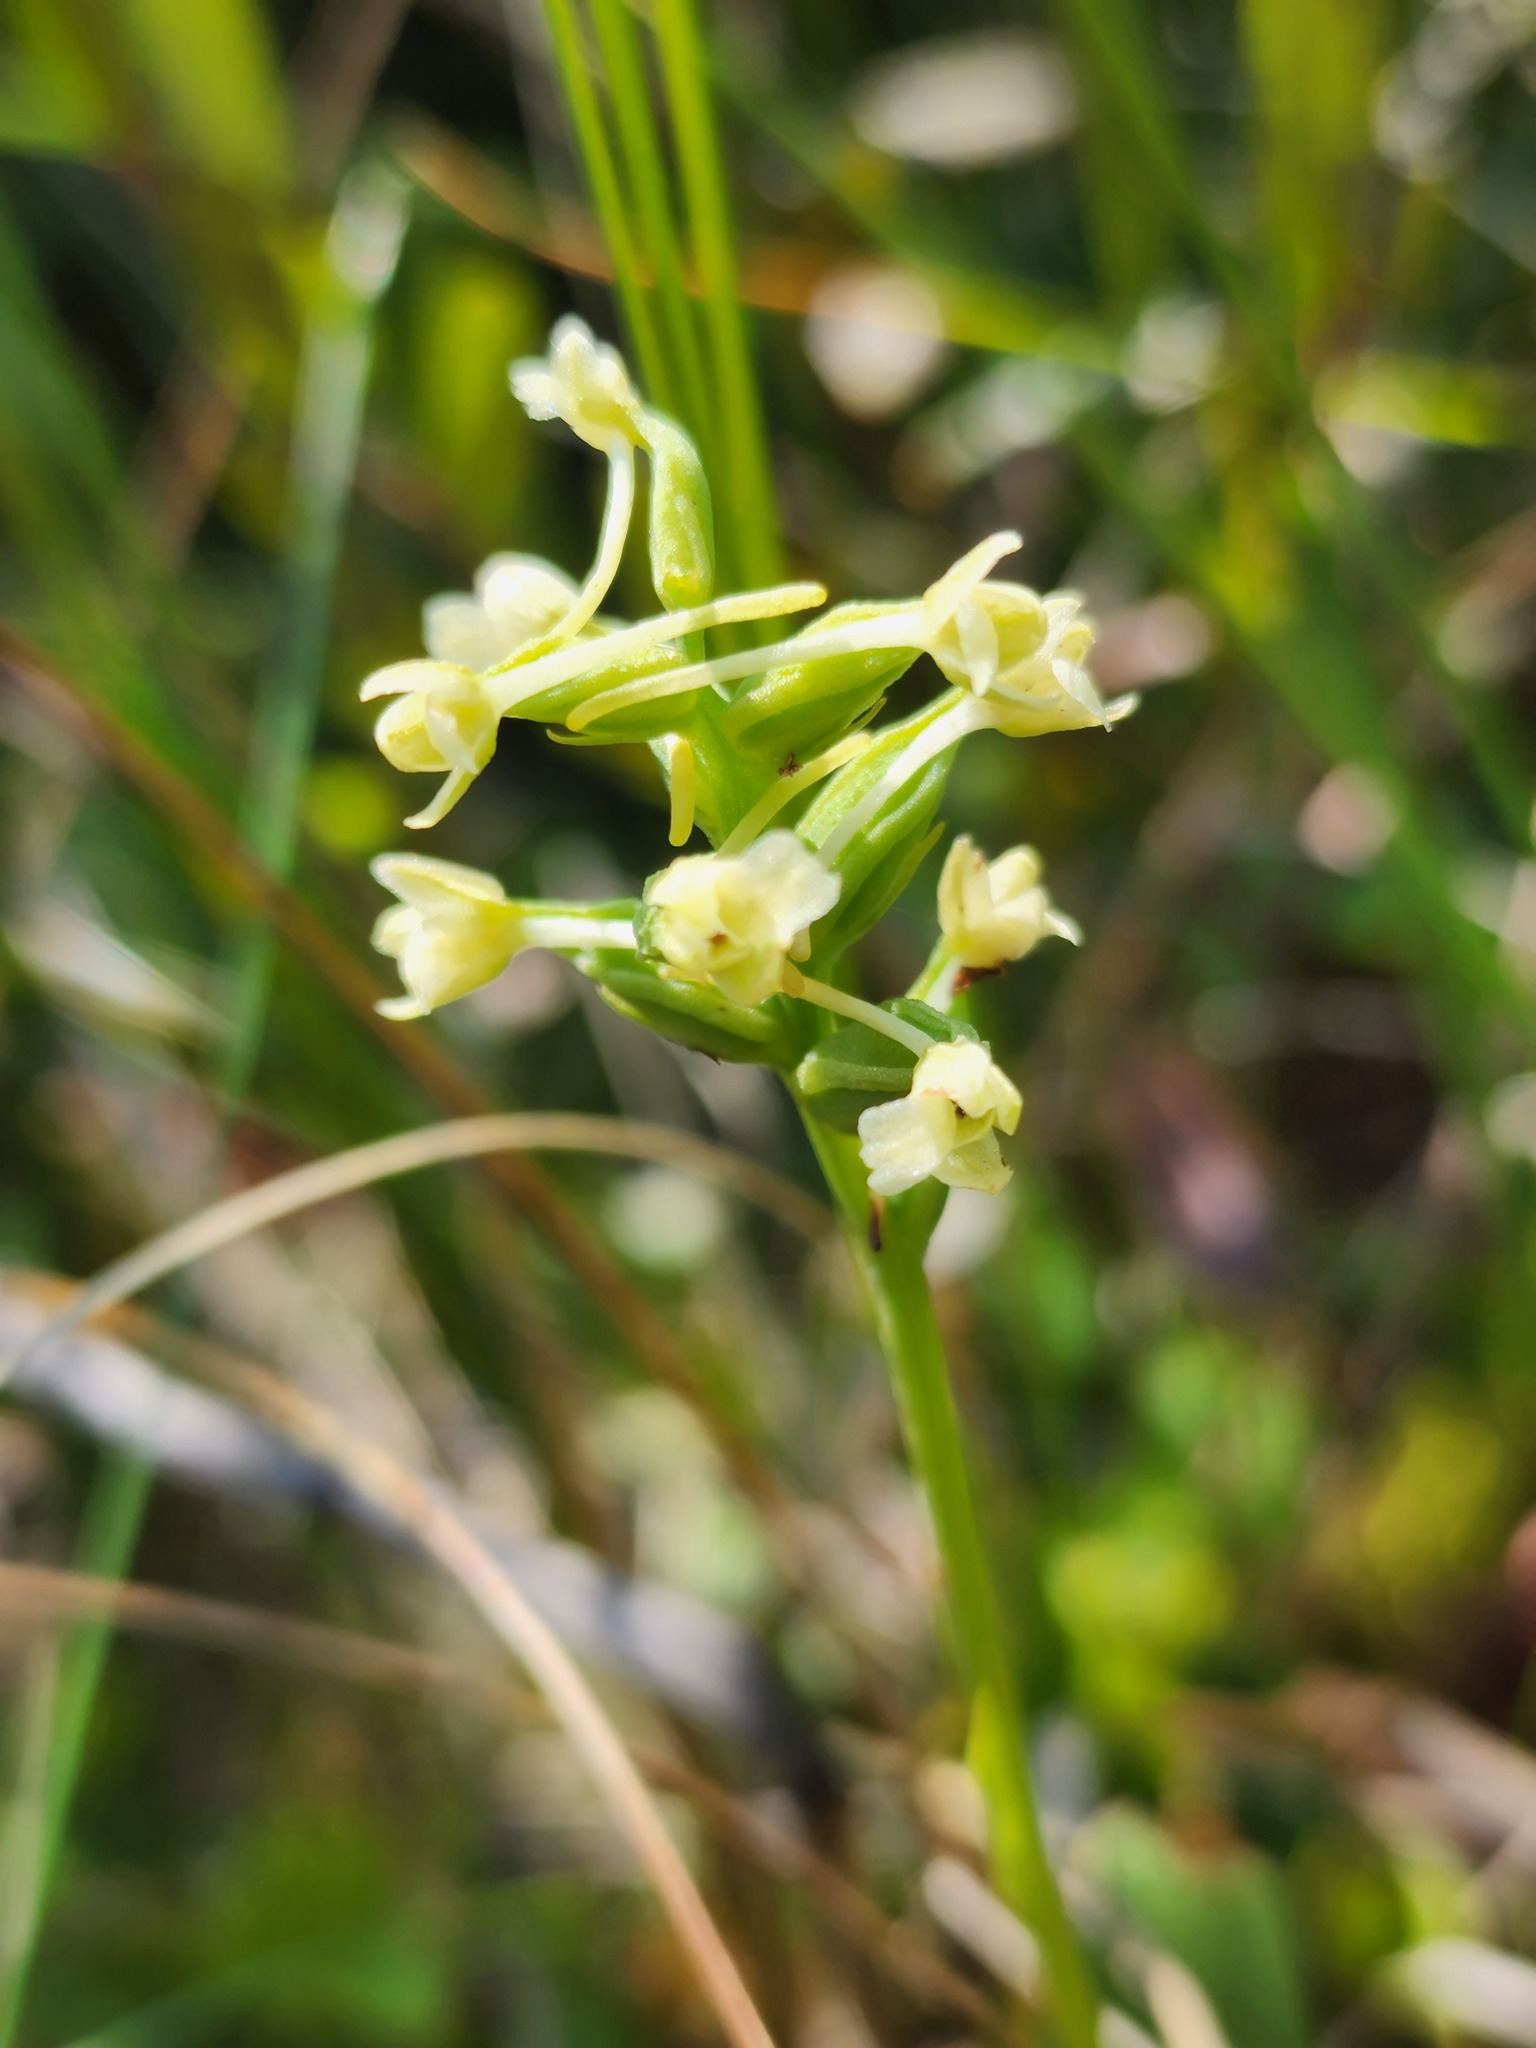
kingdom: Plantae
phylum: Tracheophyta
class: Liliopsida
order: Asparagales
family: Orchidaceae
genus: Platanthera
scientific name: Platanthera clavellata
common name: Club-spur orchid
